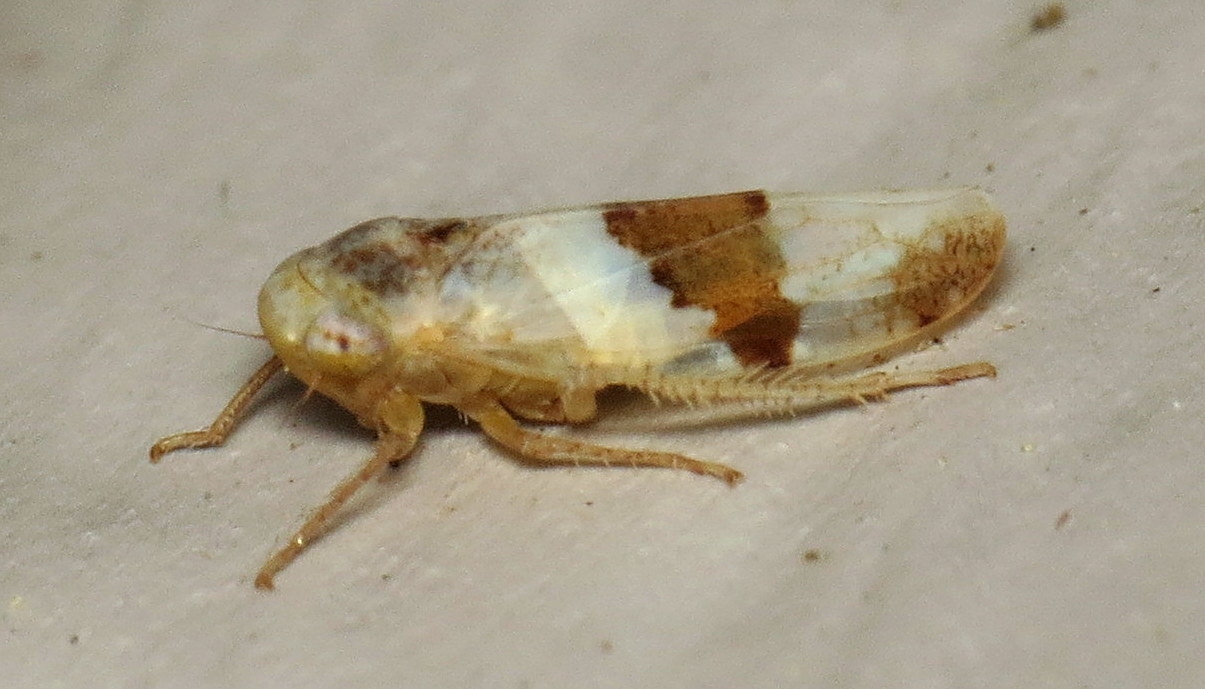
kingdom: Animalia
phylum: Arthropoda
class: Insecta
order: Hemiptera
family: Cicadellidae
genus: Norvellina
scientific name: Norvellina seminuda
